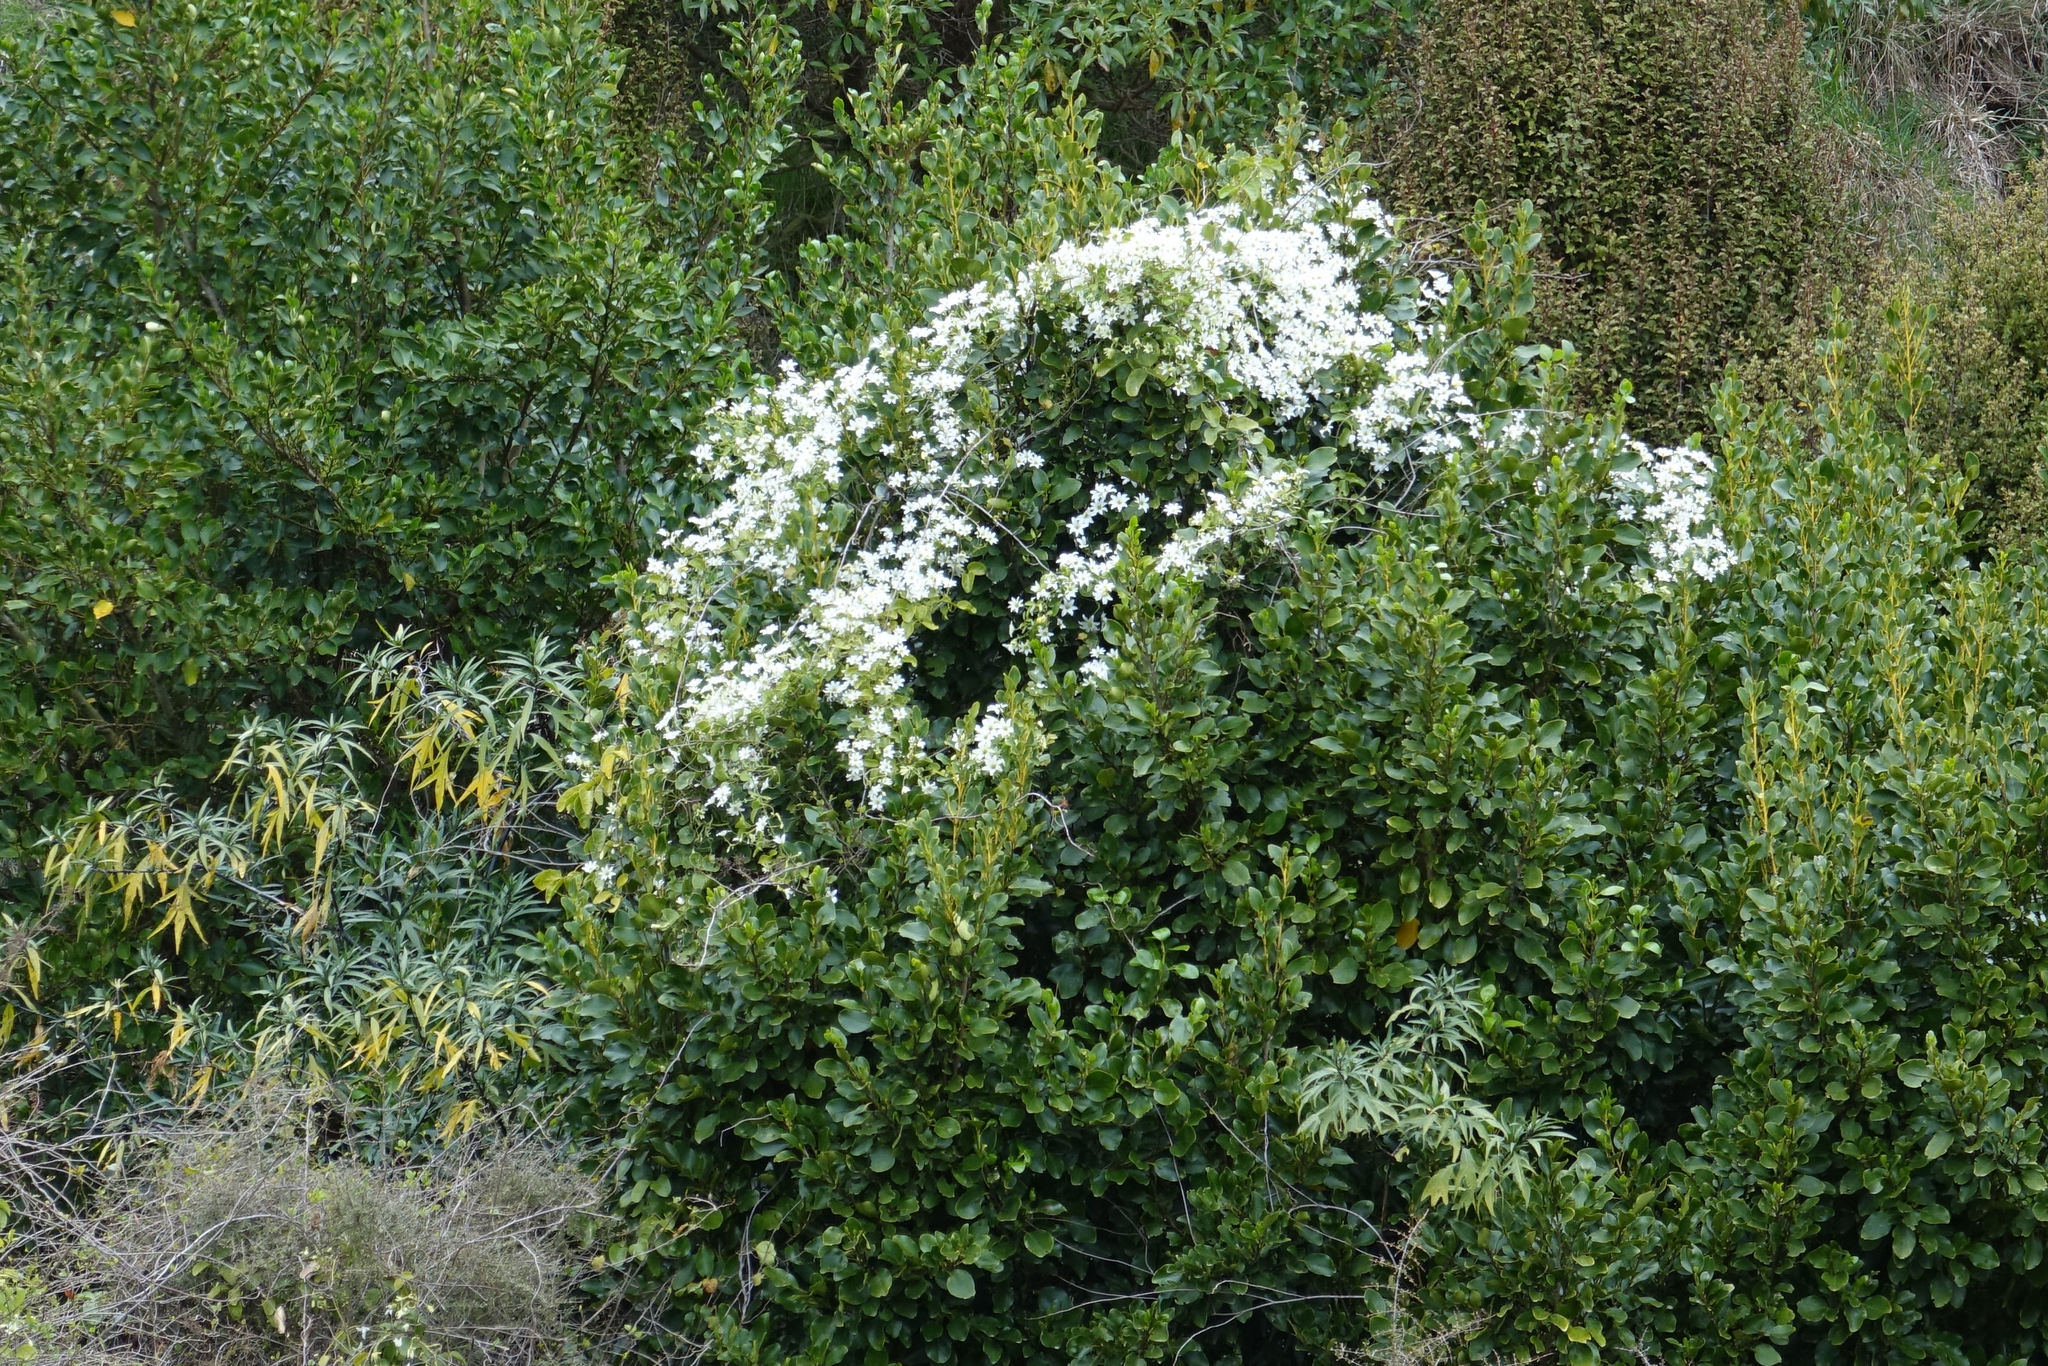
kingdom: Plantae
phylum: Tracheophyta
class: Magnoliopsida
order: Ranunculales
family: Ranunculaceae
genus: Clematis
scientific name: Clematis paniculata
